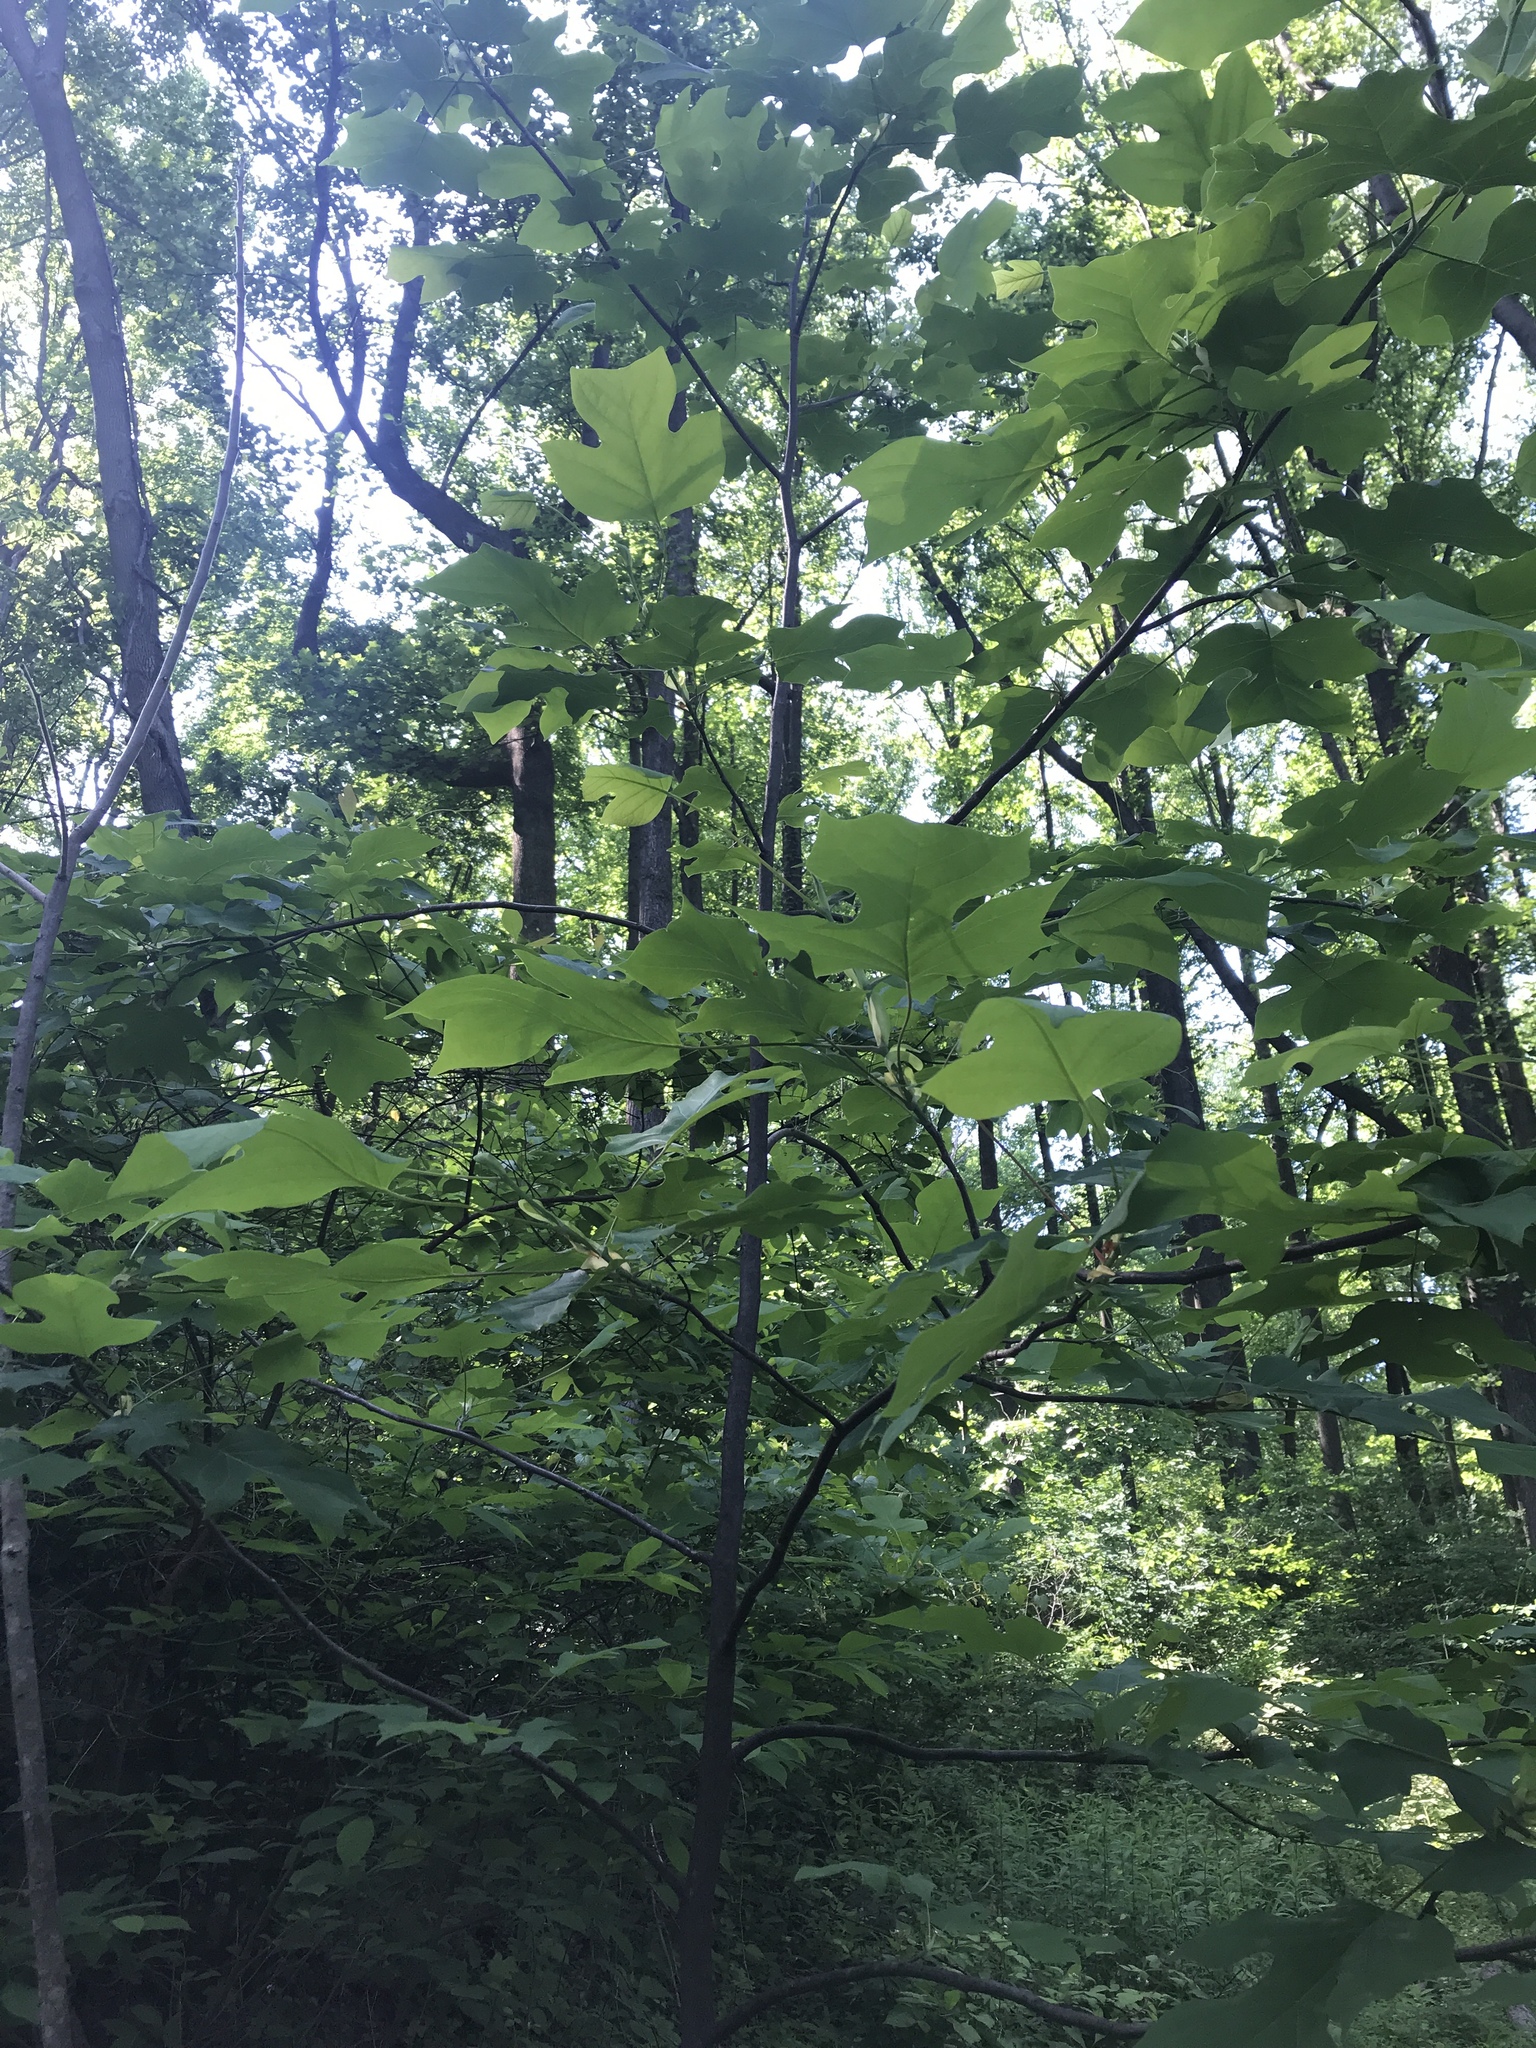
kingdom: Plantae
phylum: Tracheophyta
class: Magnoliopsida
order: Magnoliales
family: Magnoliaceae
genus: Liriodendron
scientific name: Liriodendron tulipifera
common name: Tulip tree
